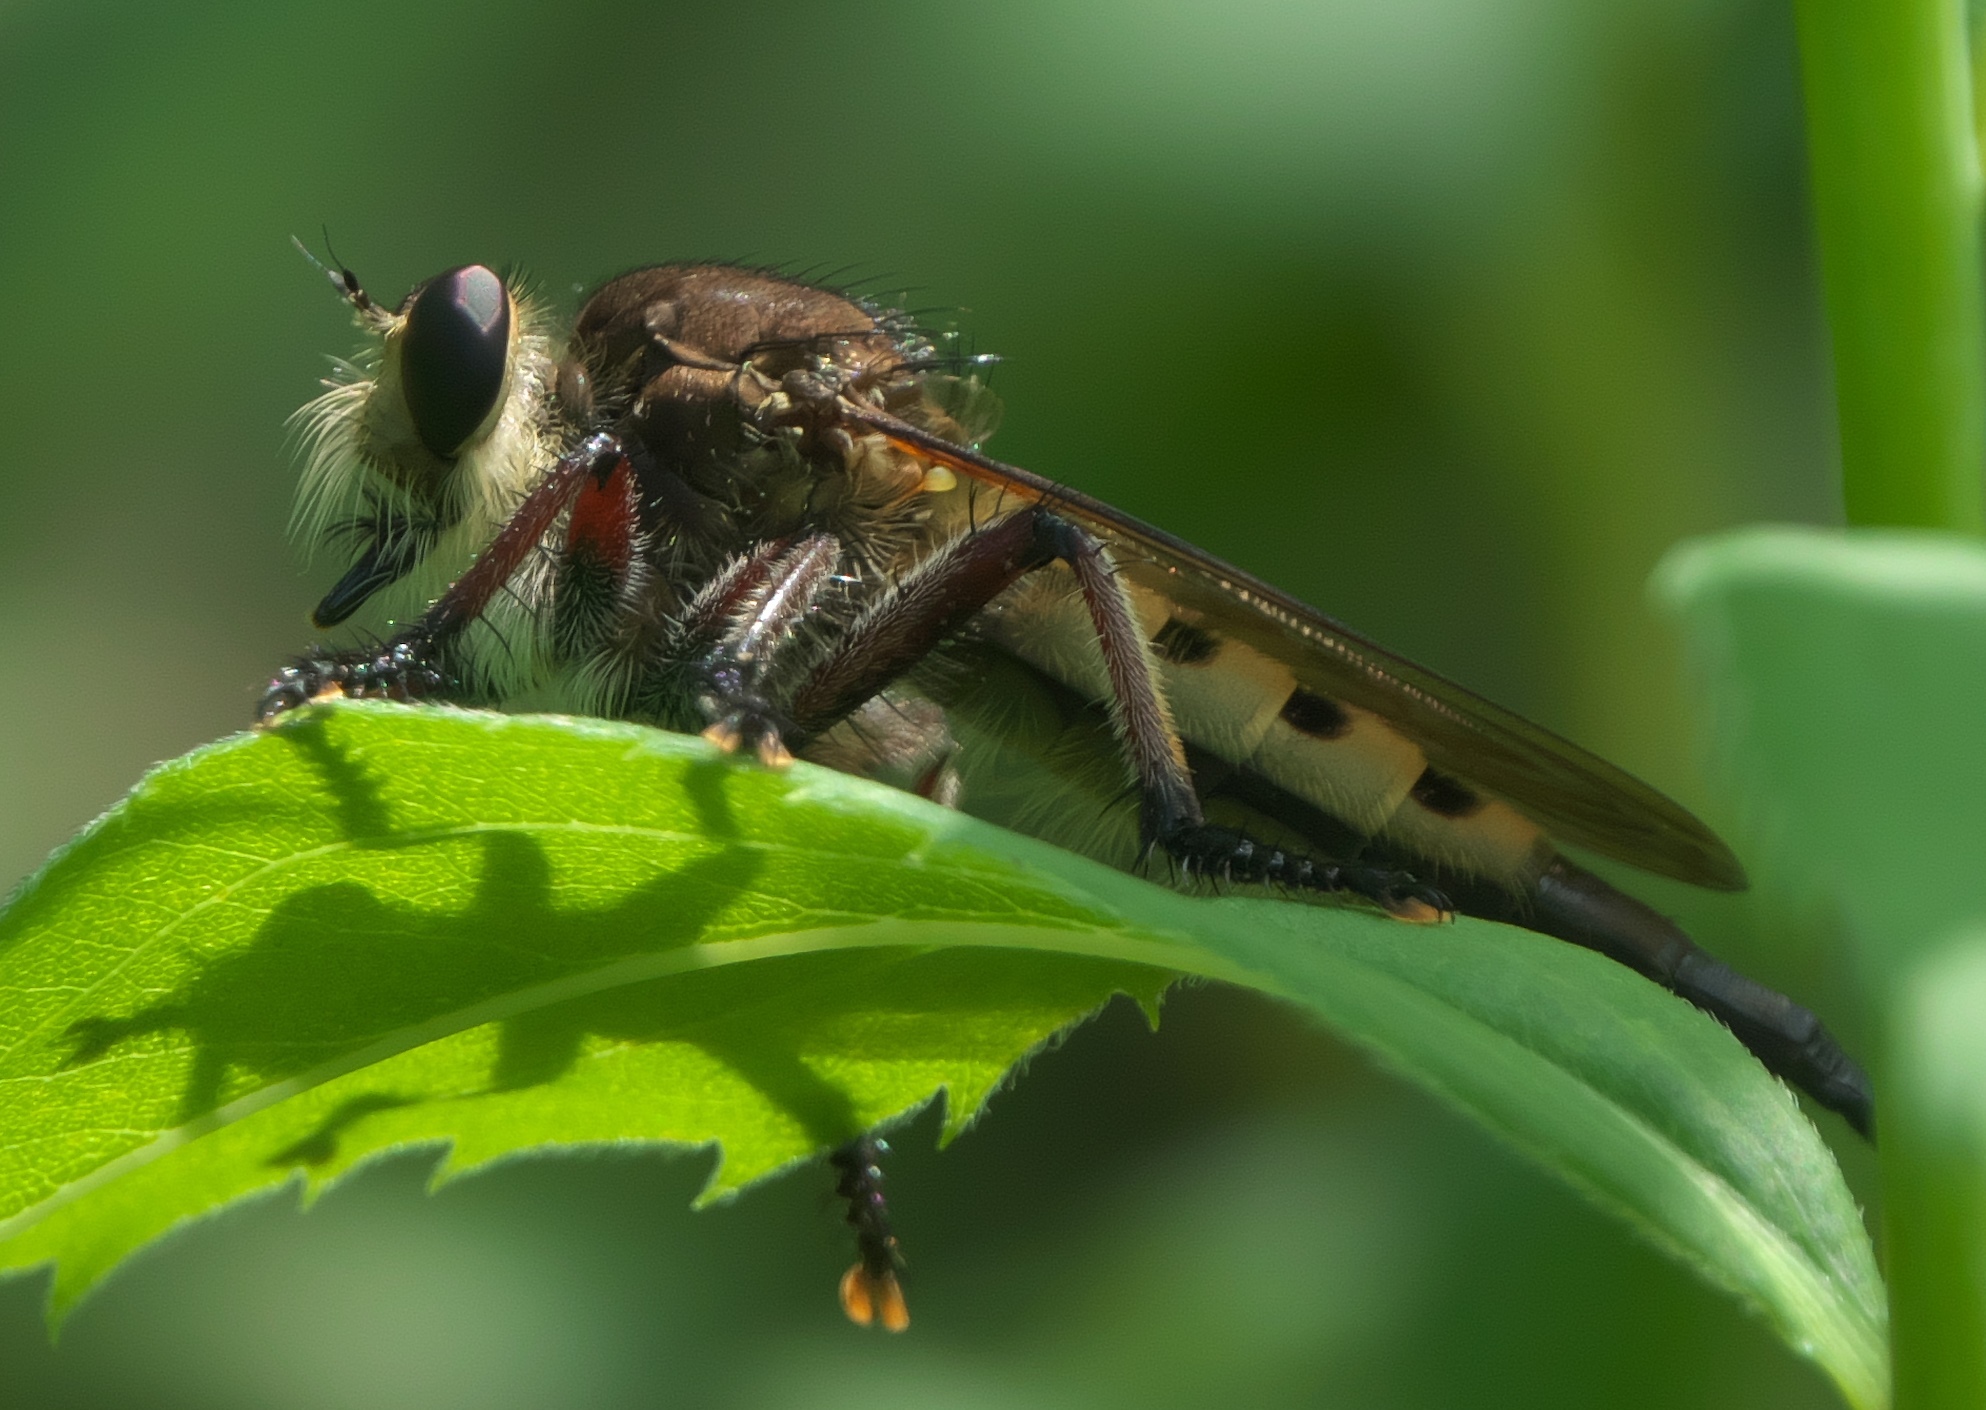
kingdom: Animalia
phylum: Arthropoda
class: Insecta
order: Diptera
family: Asilidae
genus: Promachus
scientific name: Promachus hinei
